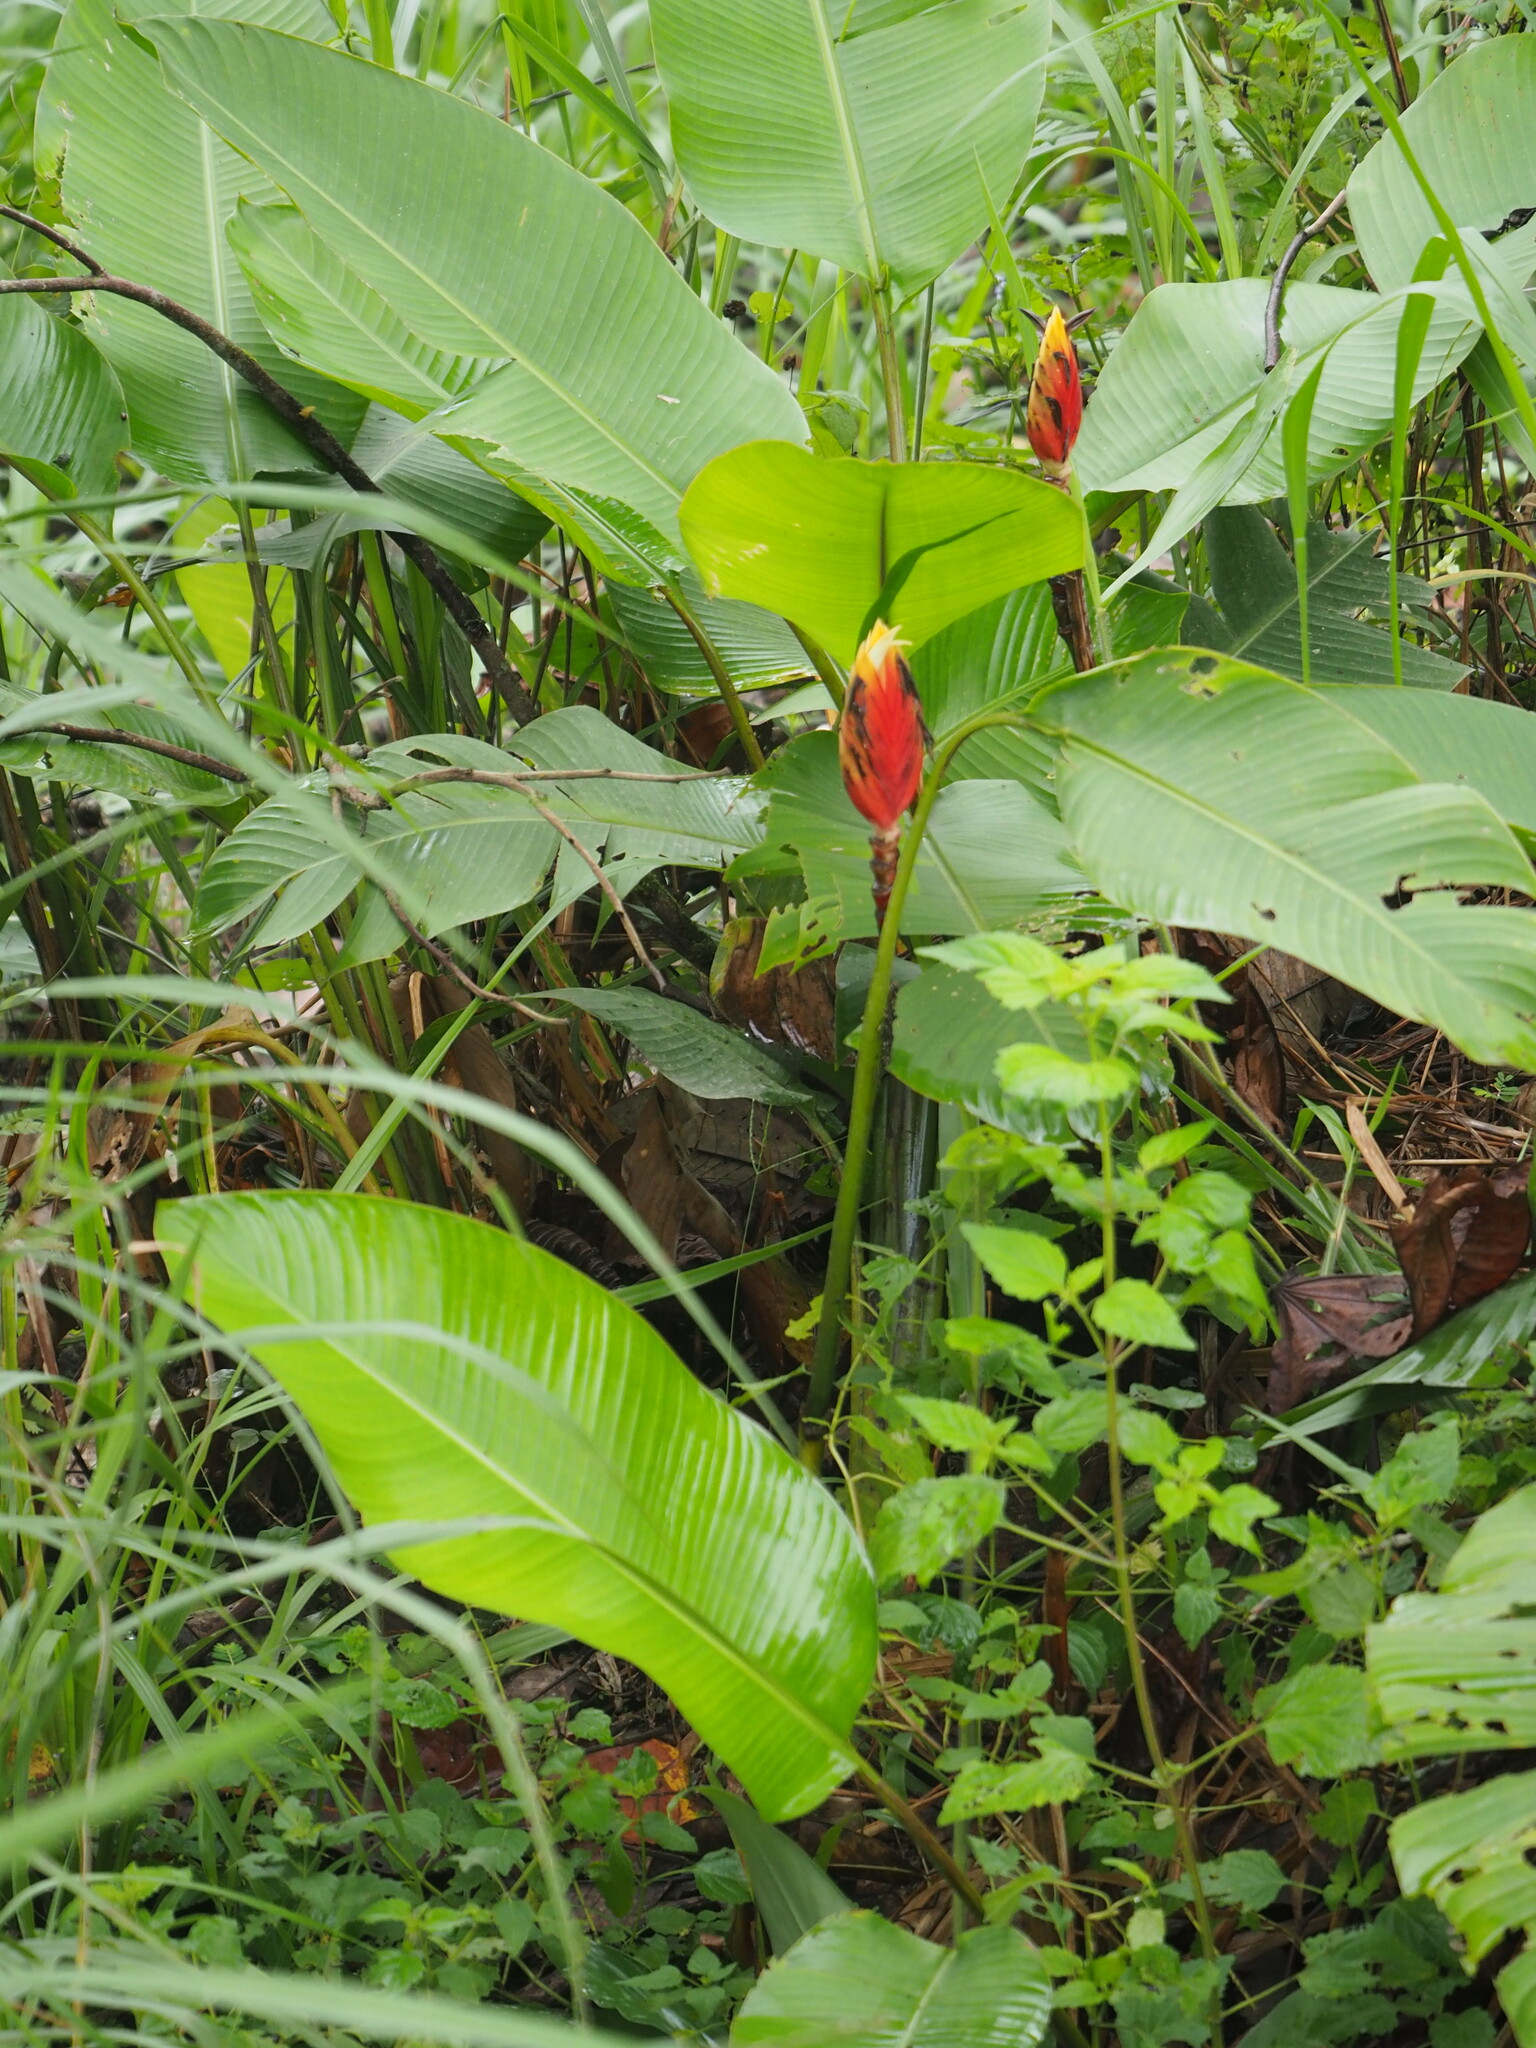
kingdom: Plantae
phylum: Tracheophyta
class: Liliopsida
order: Zingiberales
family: Heliconiaceae
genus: Heliconia
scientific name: Heliconia episcopalis
